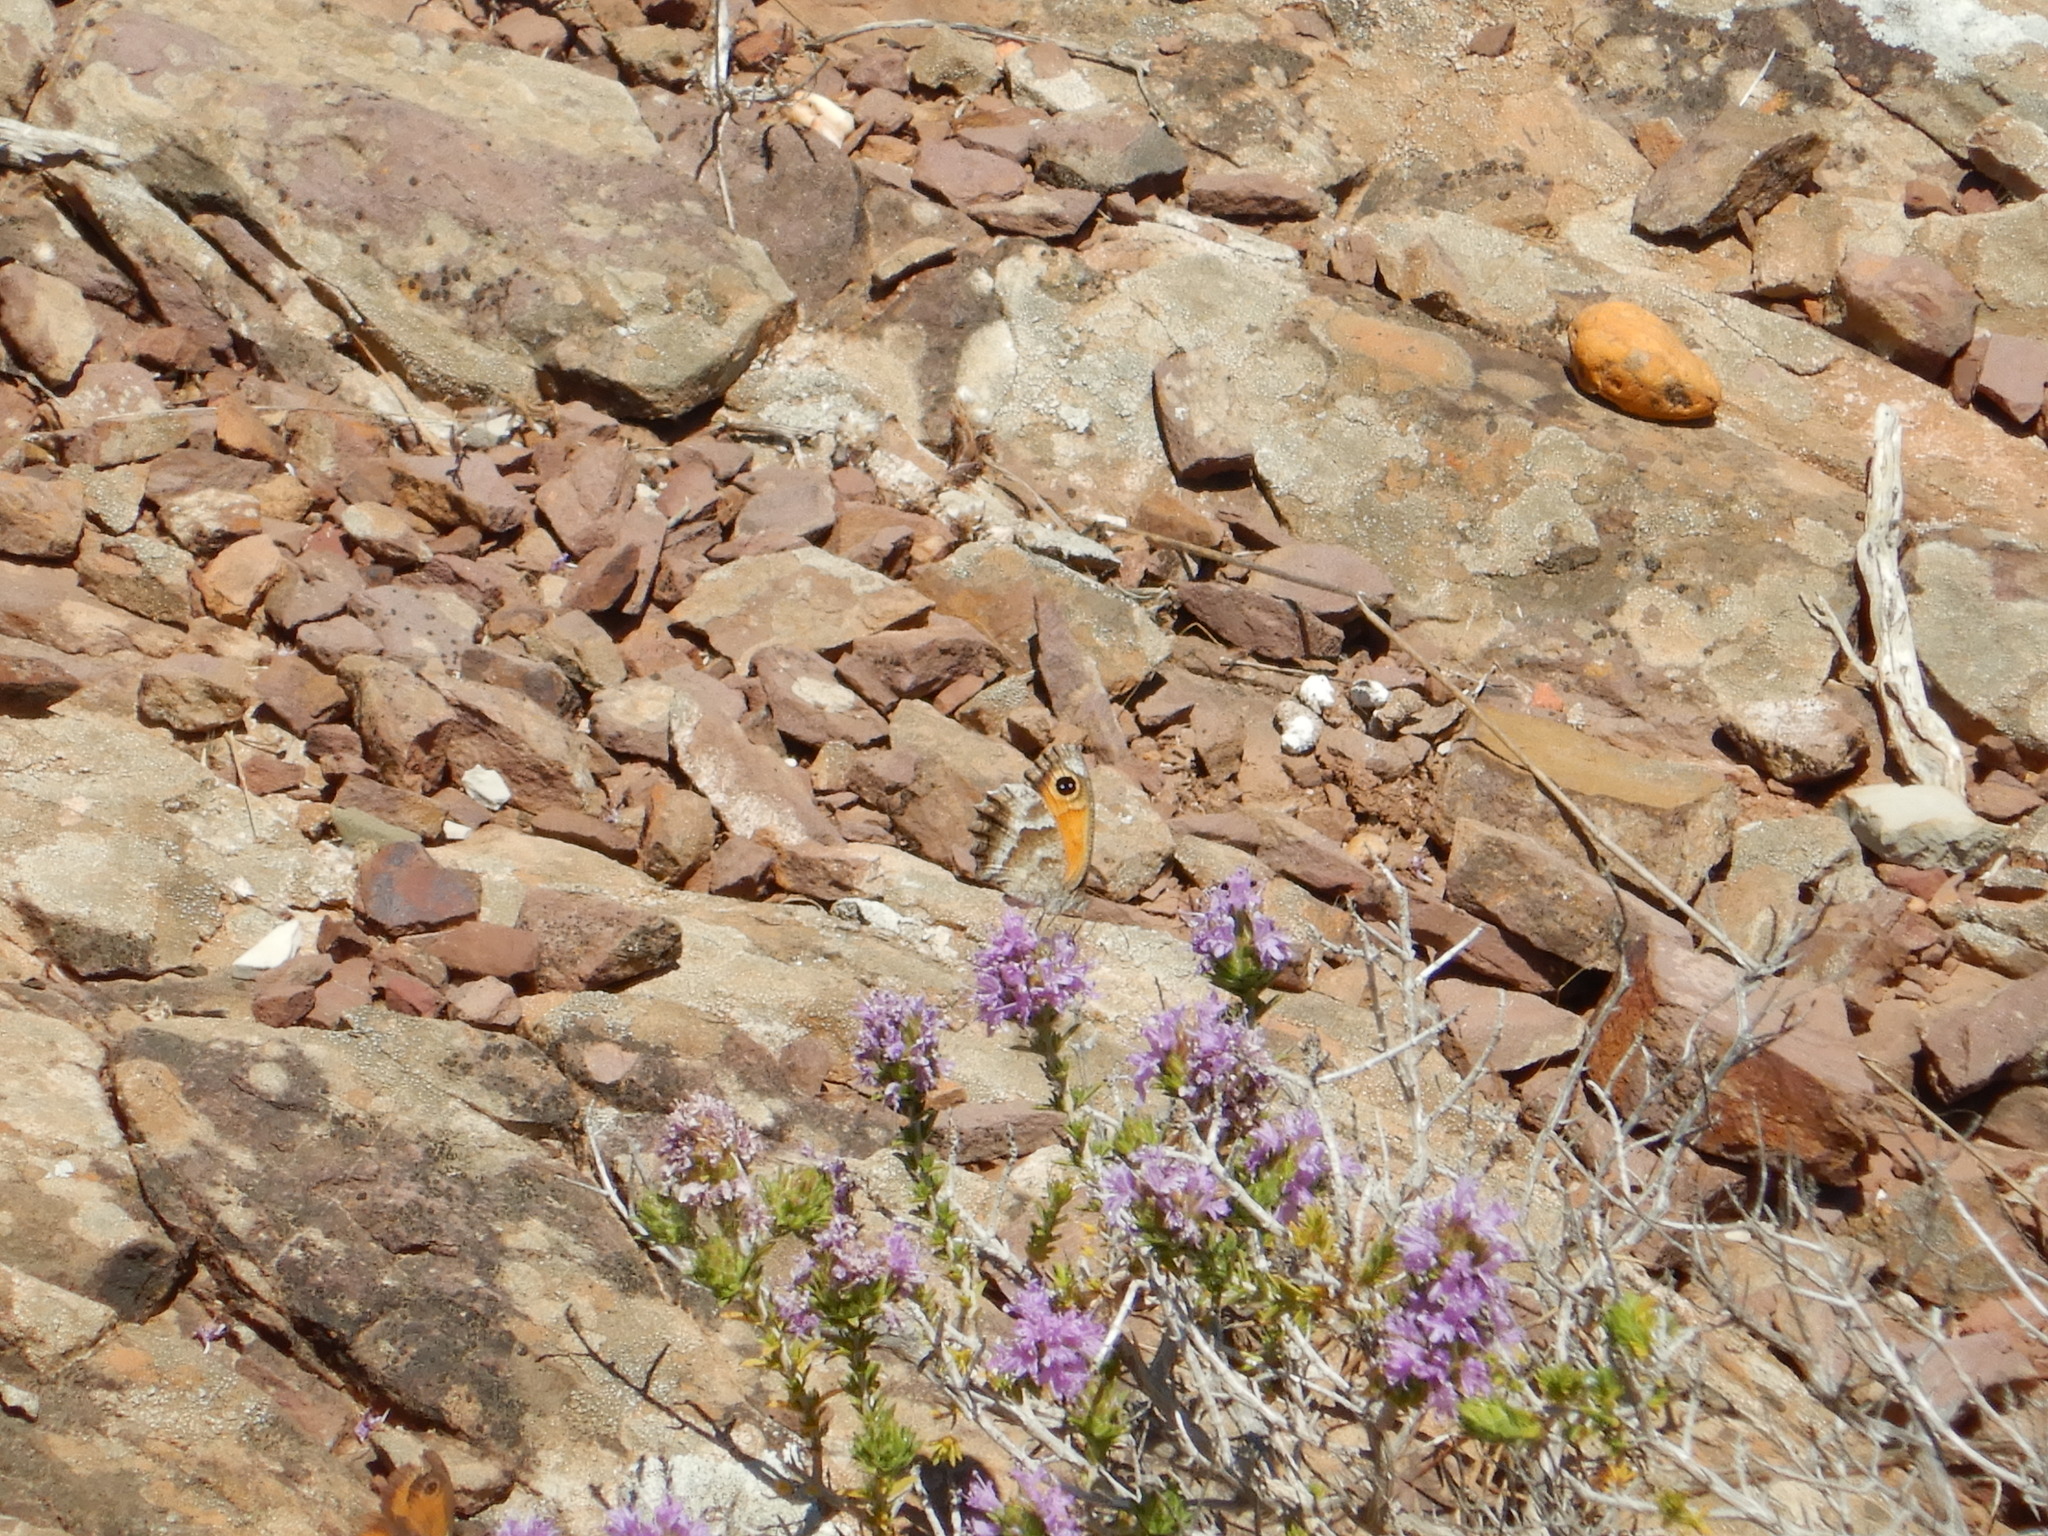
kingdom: Animalia
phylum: Arthropoda
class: Insecta
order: Lepidoptera
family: Nymphalidae
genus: Pyronia
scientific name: Pyronia cecilia
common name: Southern gatekeeper
